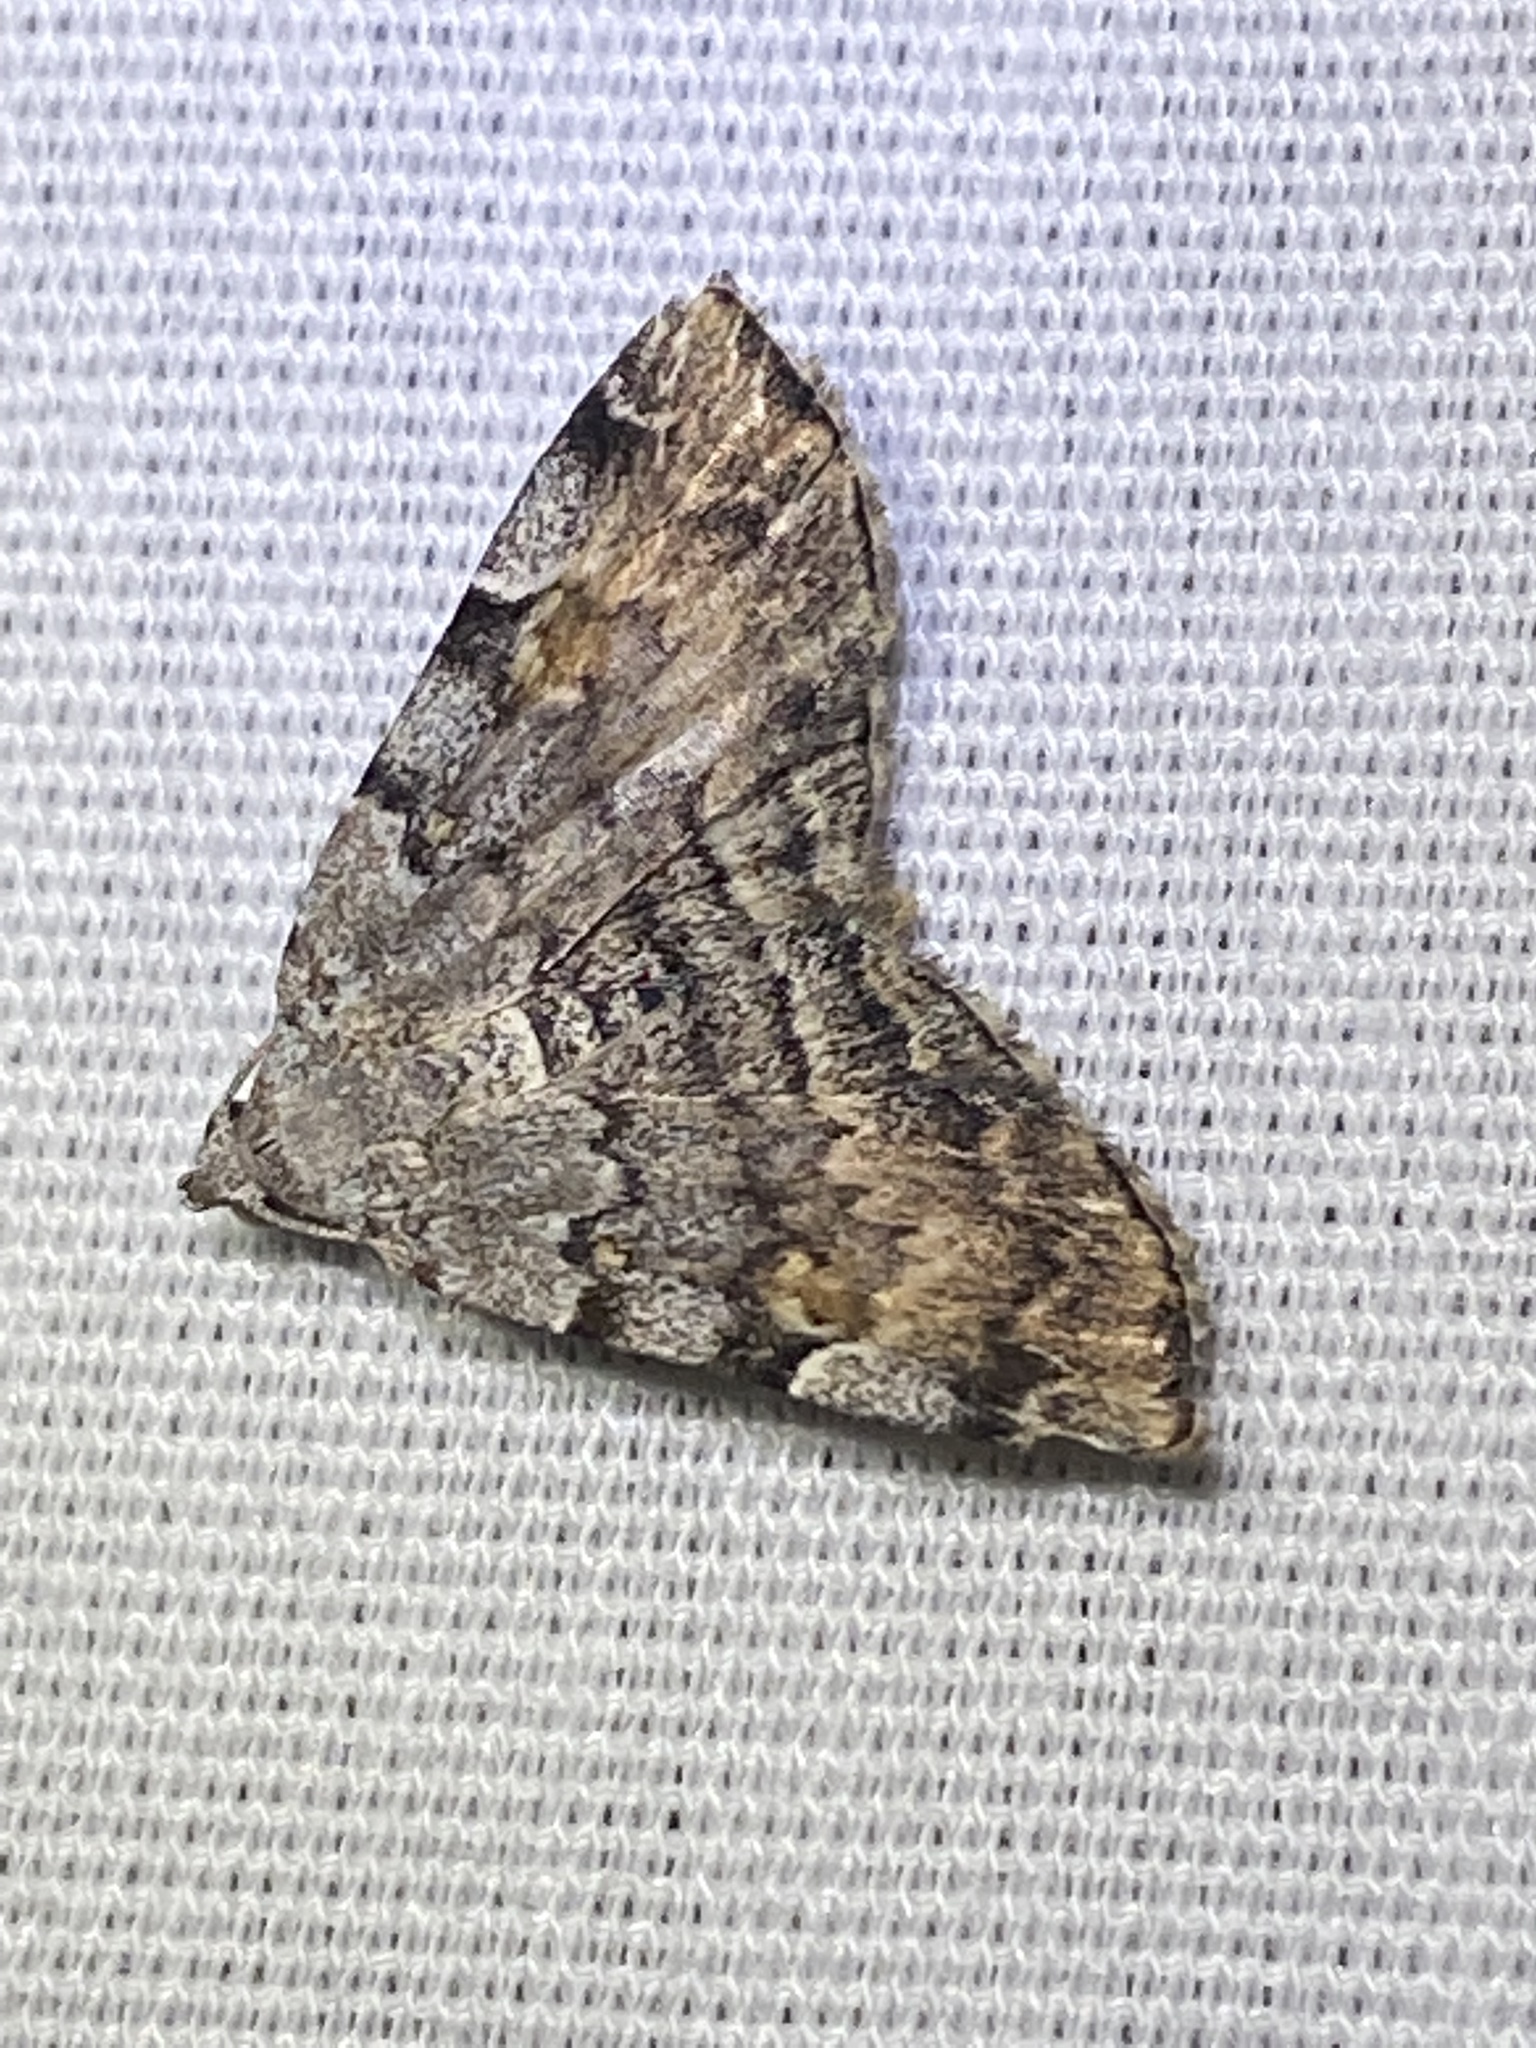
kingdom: Animalia
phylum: Arthropoda
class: Insecta
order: Lepidoptera
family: Erebidae
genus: Idia
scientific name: Idia americalis
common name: American idia moth
